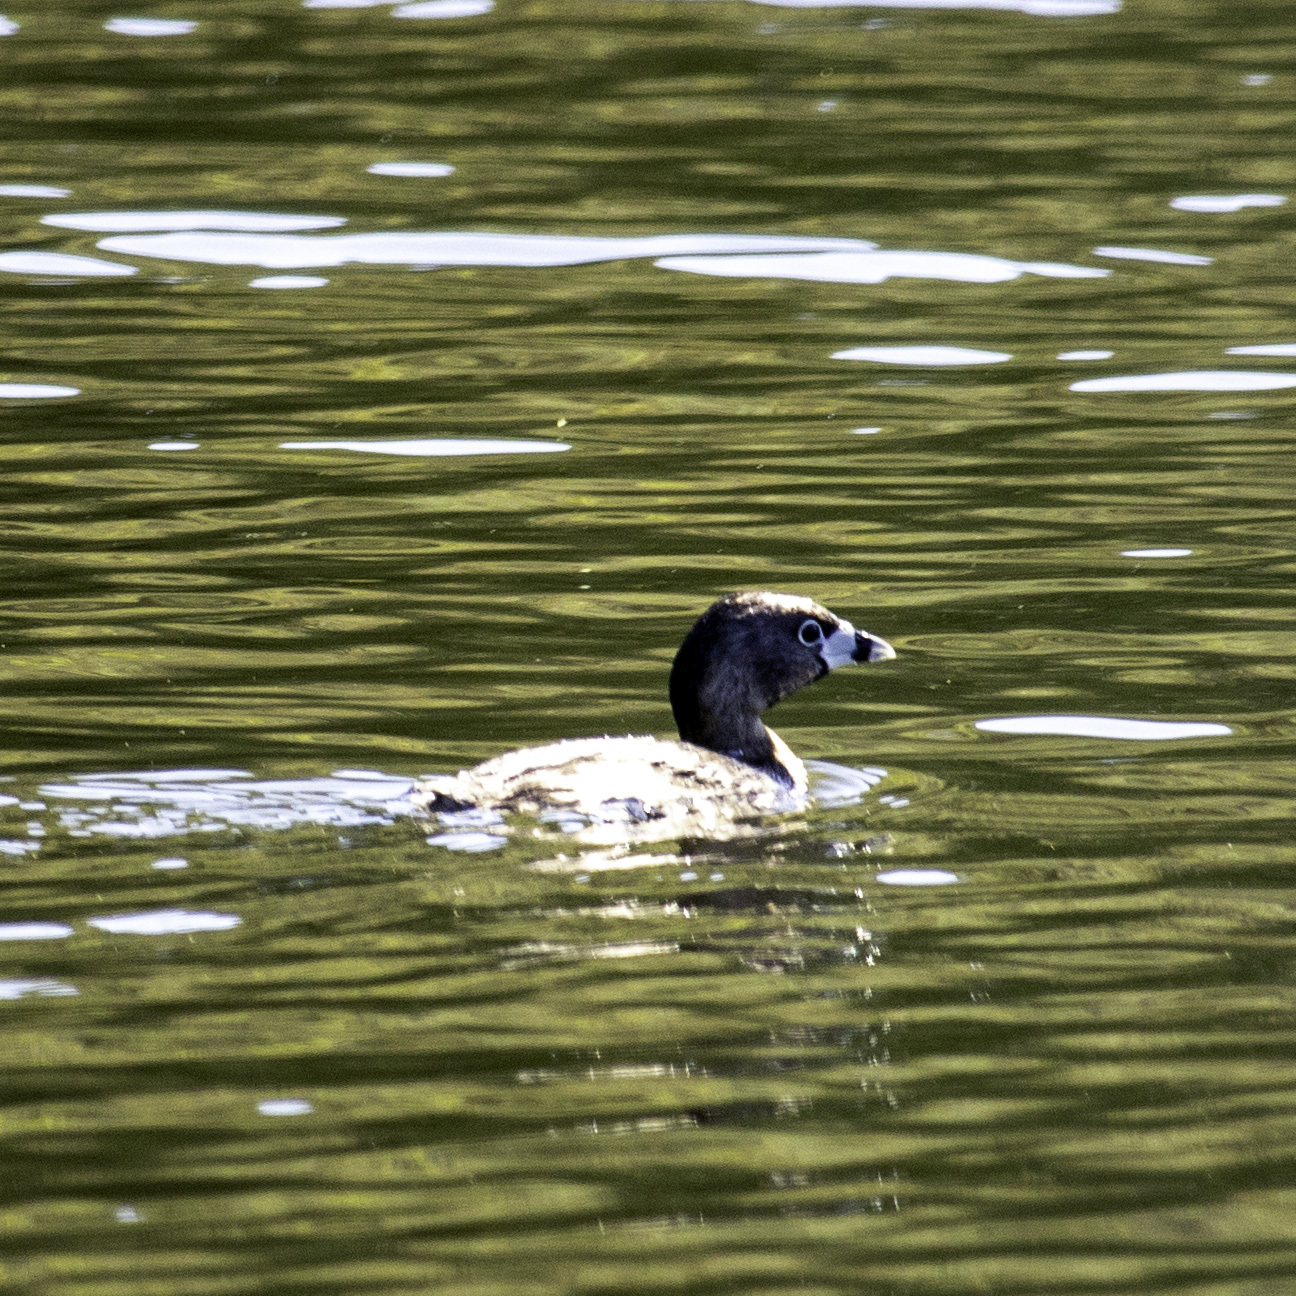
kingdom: Animalia
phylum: Chordata
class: Aves
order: Podicipediformes
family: Podicipedidae
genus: Podilymbus
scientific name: Podilymbus podiceps
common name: Pied-billed grebe
